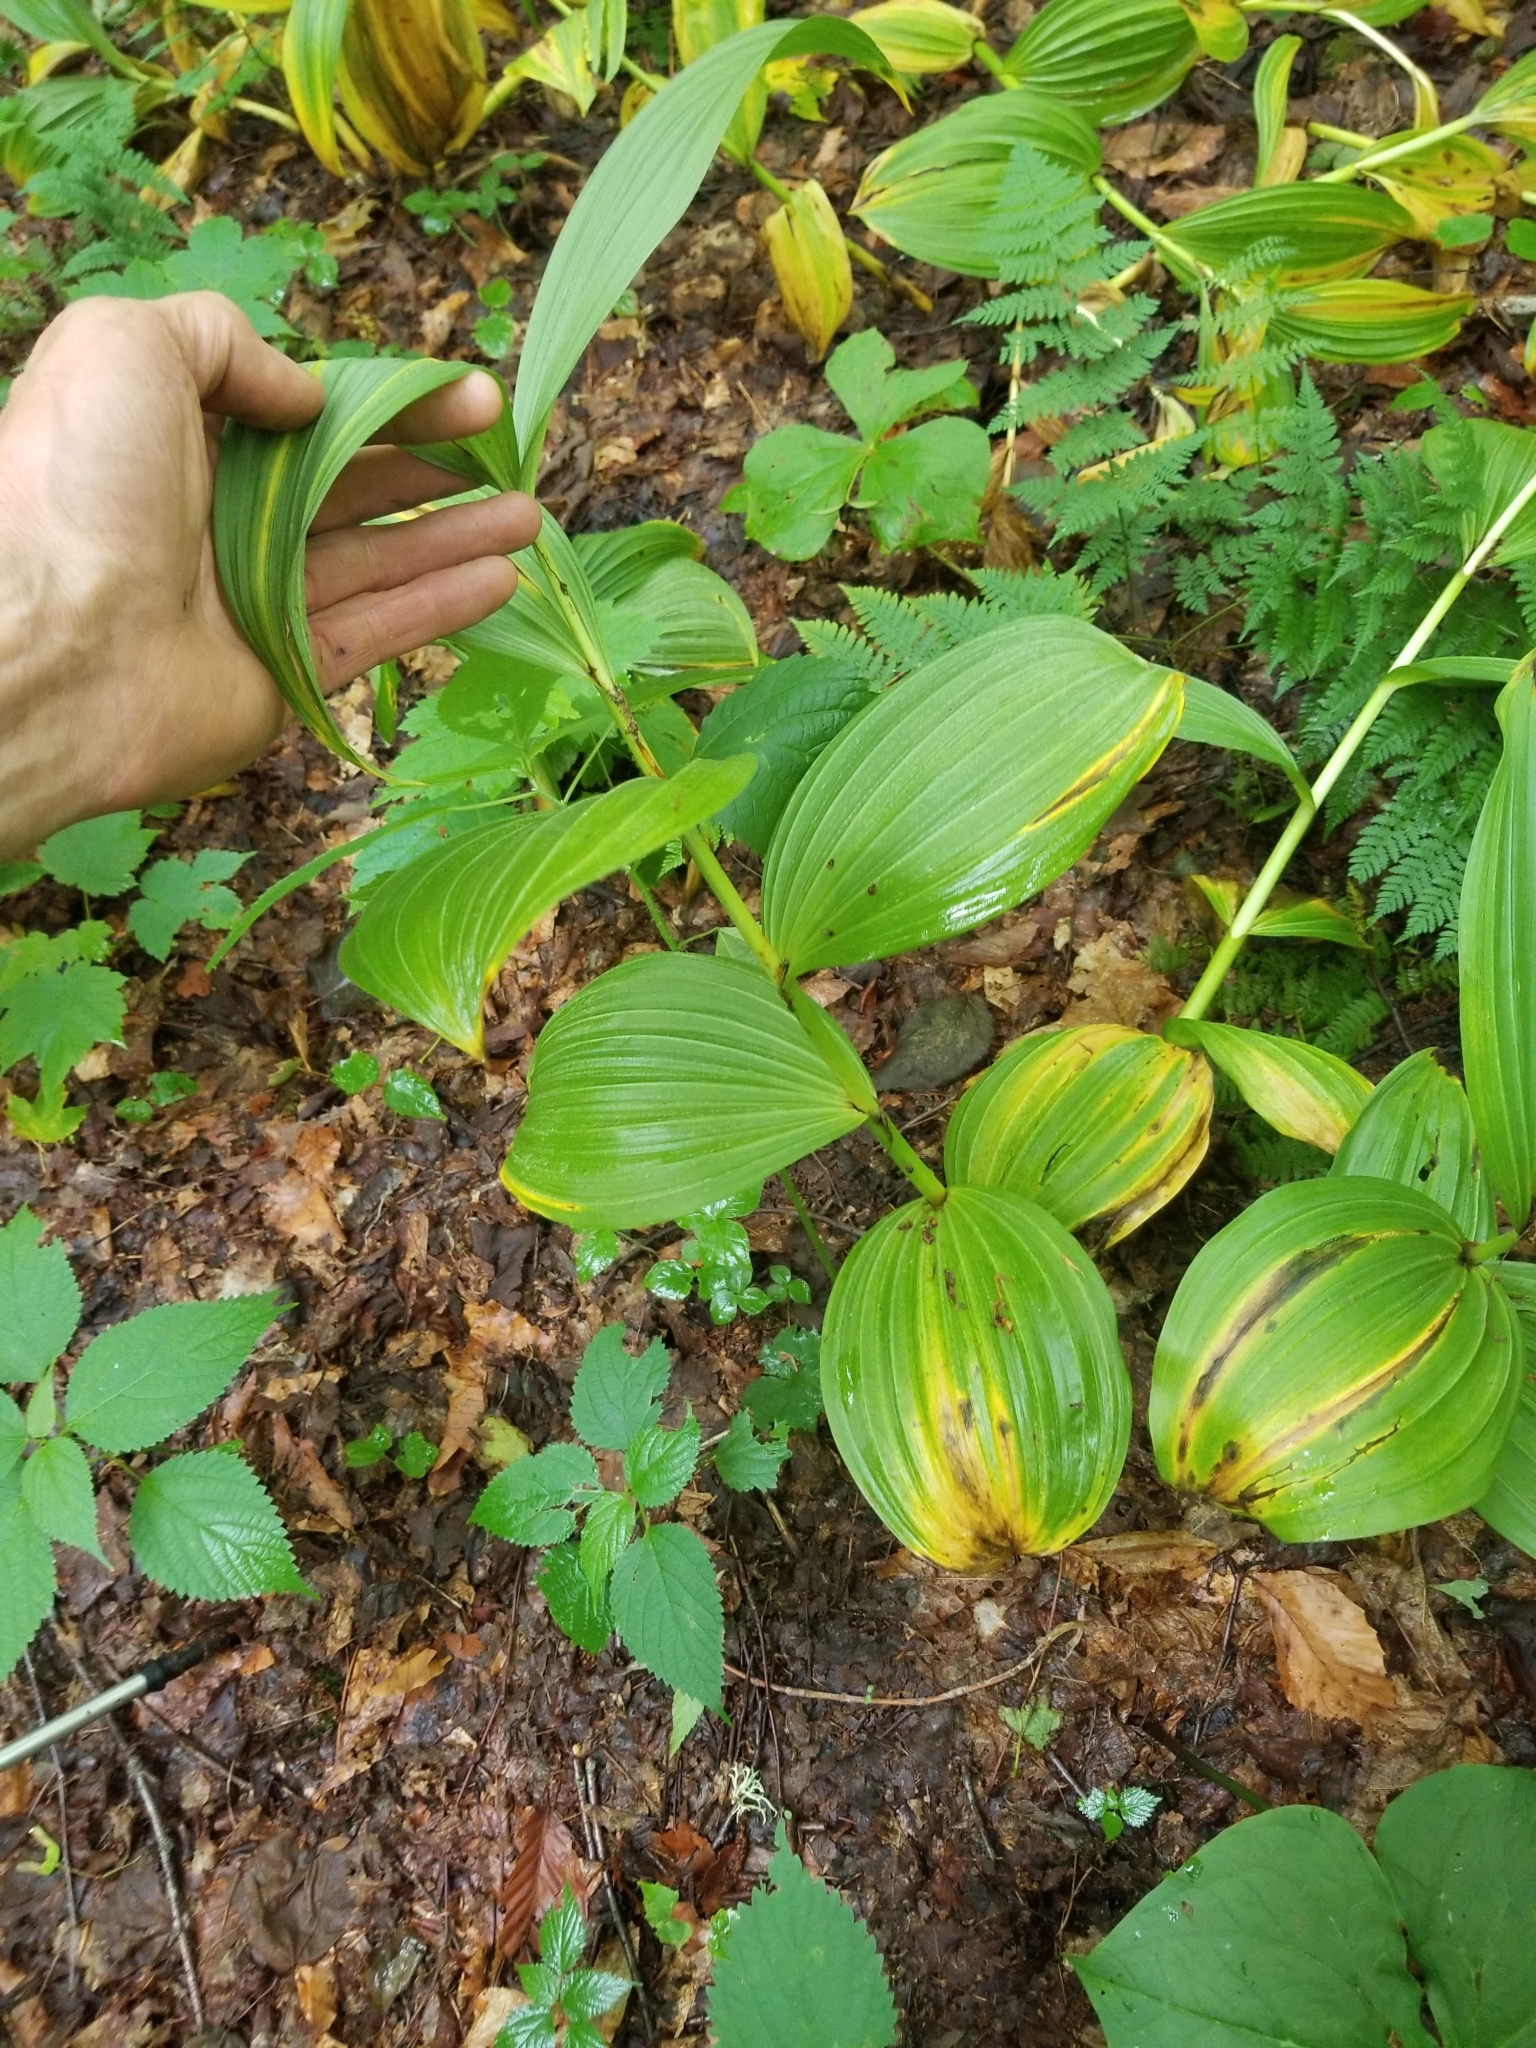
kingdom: Plantae
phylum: Tracheophyta
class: Liliopsida
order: Liliales
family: Melanthiaceae
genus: Veratrum
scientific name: Veratrum viride
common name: American false hellebore
